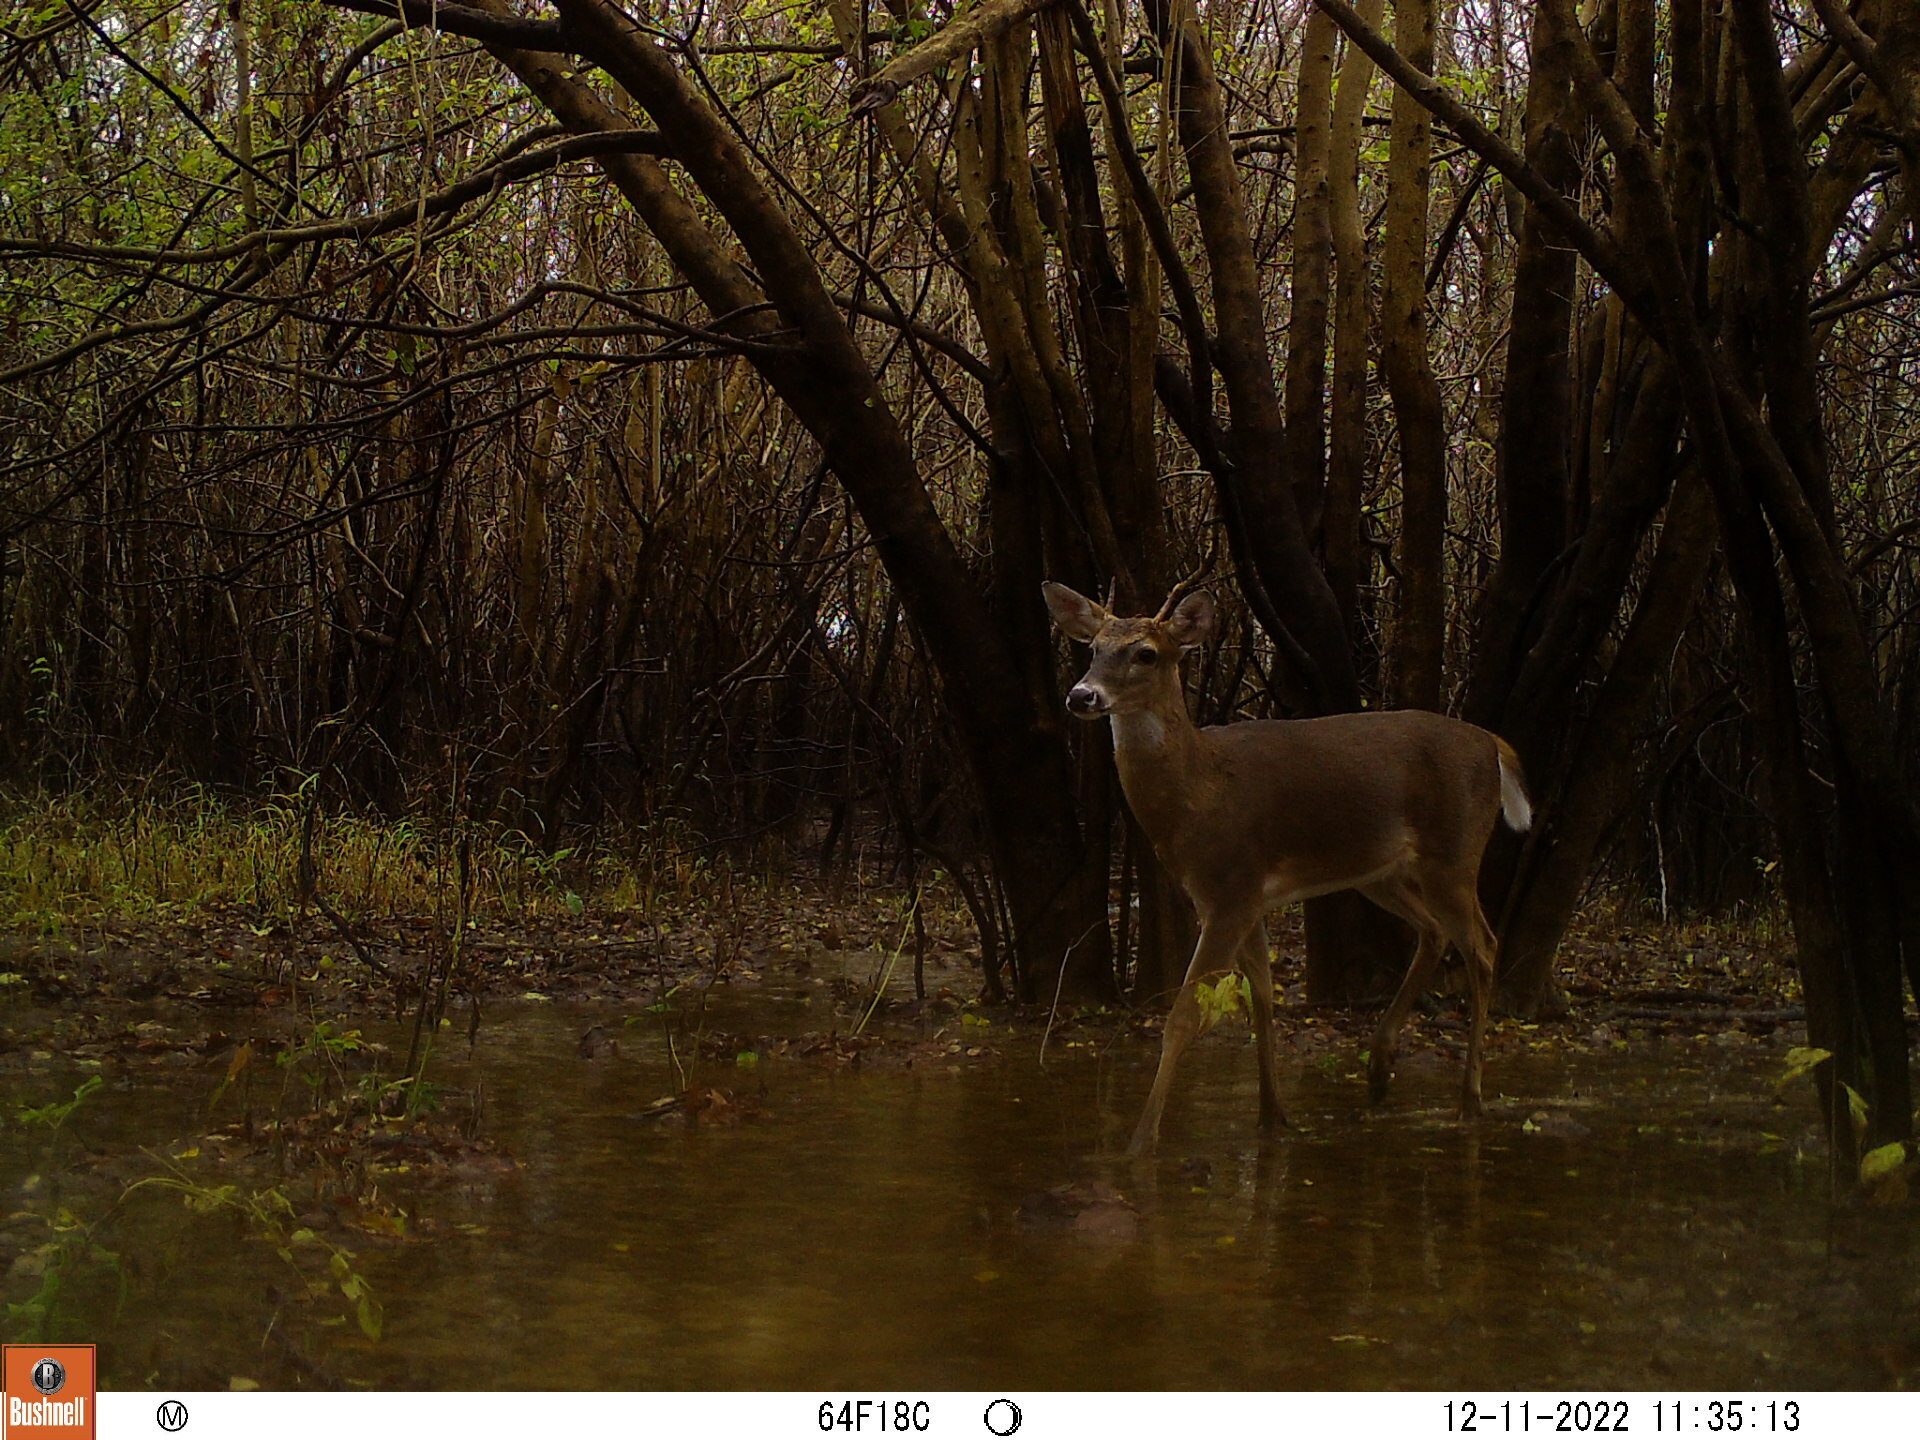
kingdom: Animalia
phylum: Chordata
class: Mammalia
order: Artiodactyla
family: Cervidae
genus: Odocoileus
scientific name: Odocoileus virginianus
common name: White-tailed deer
